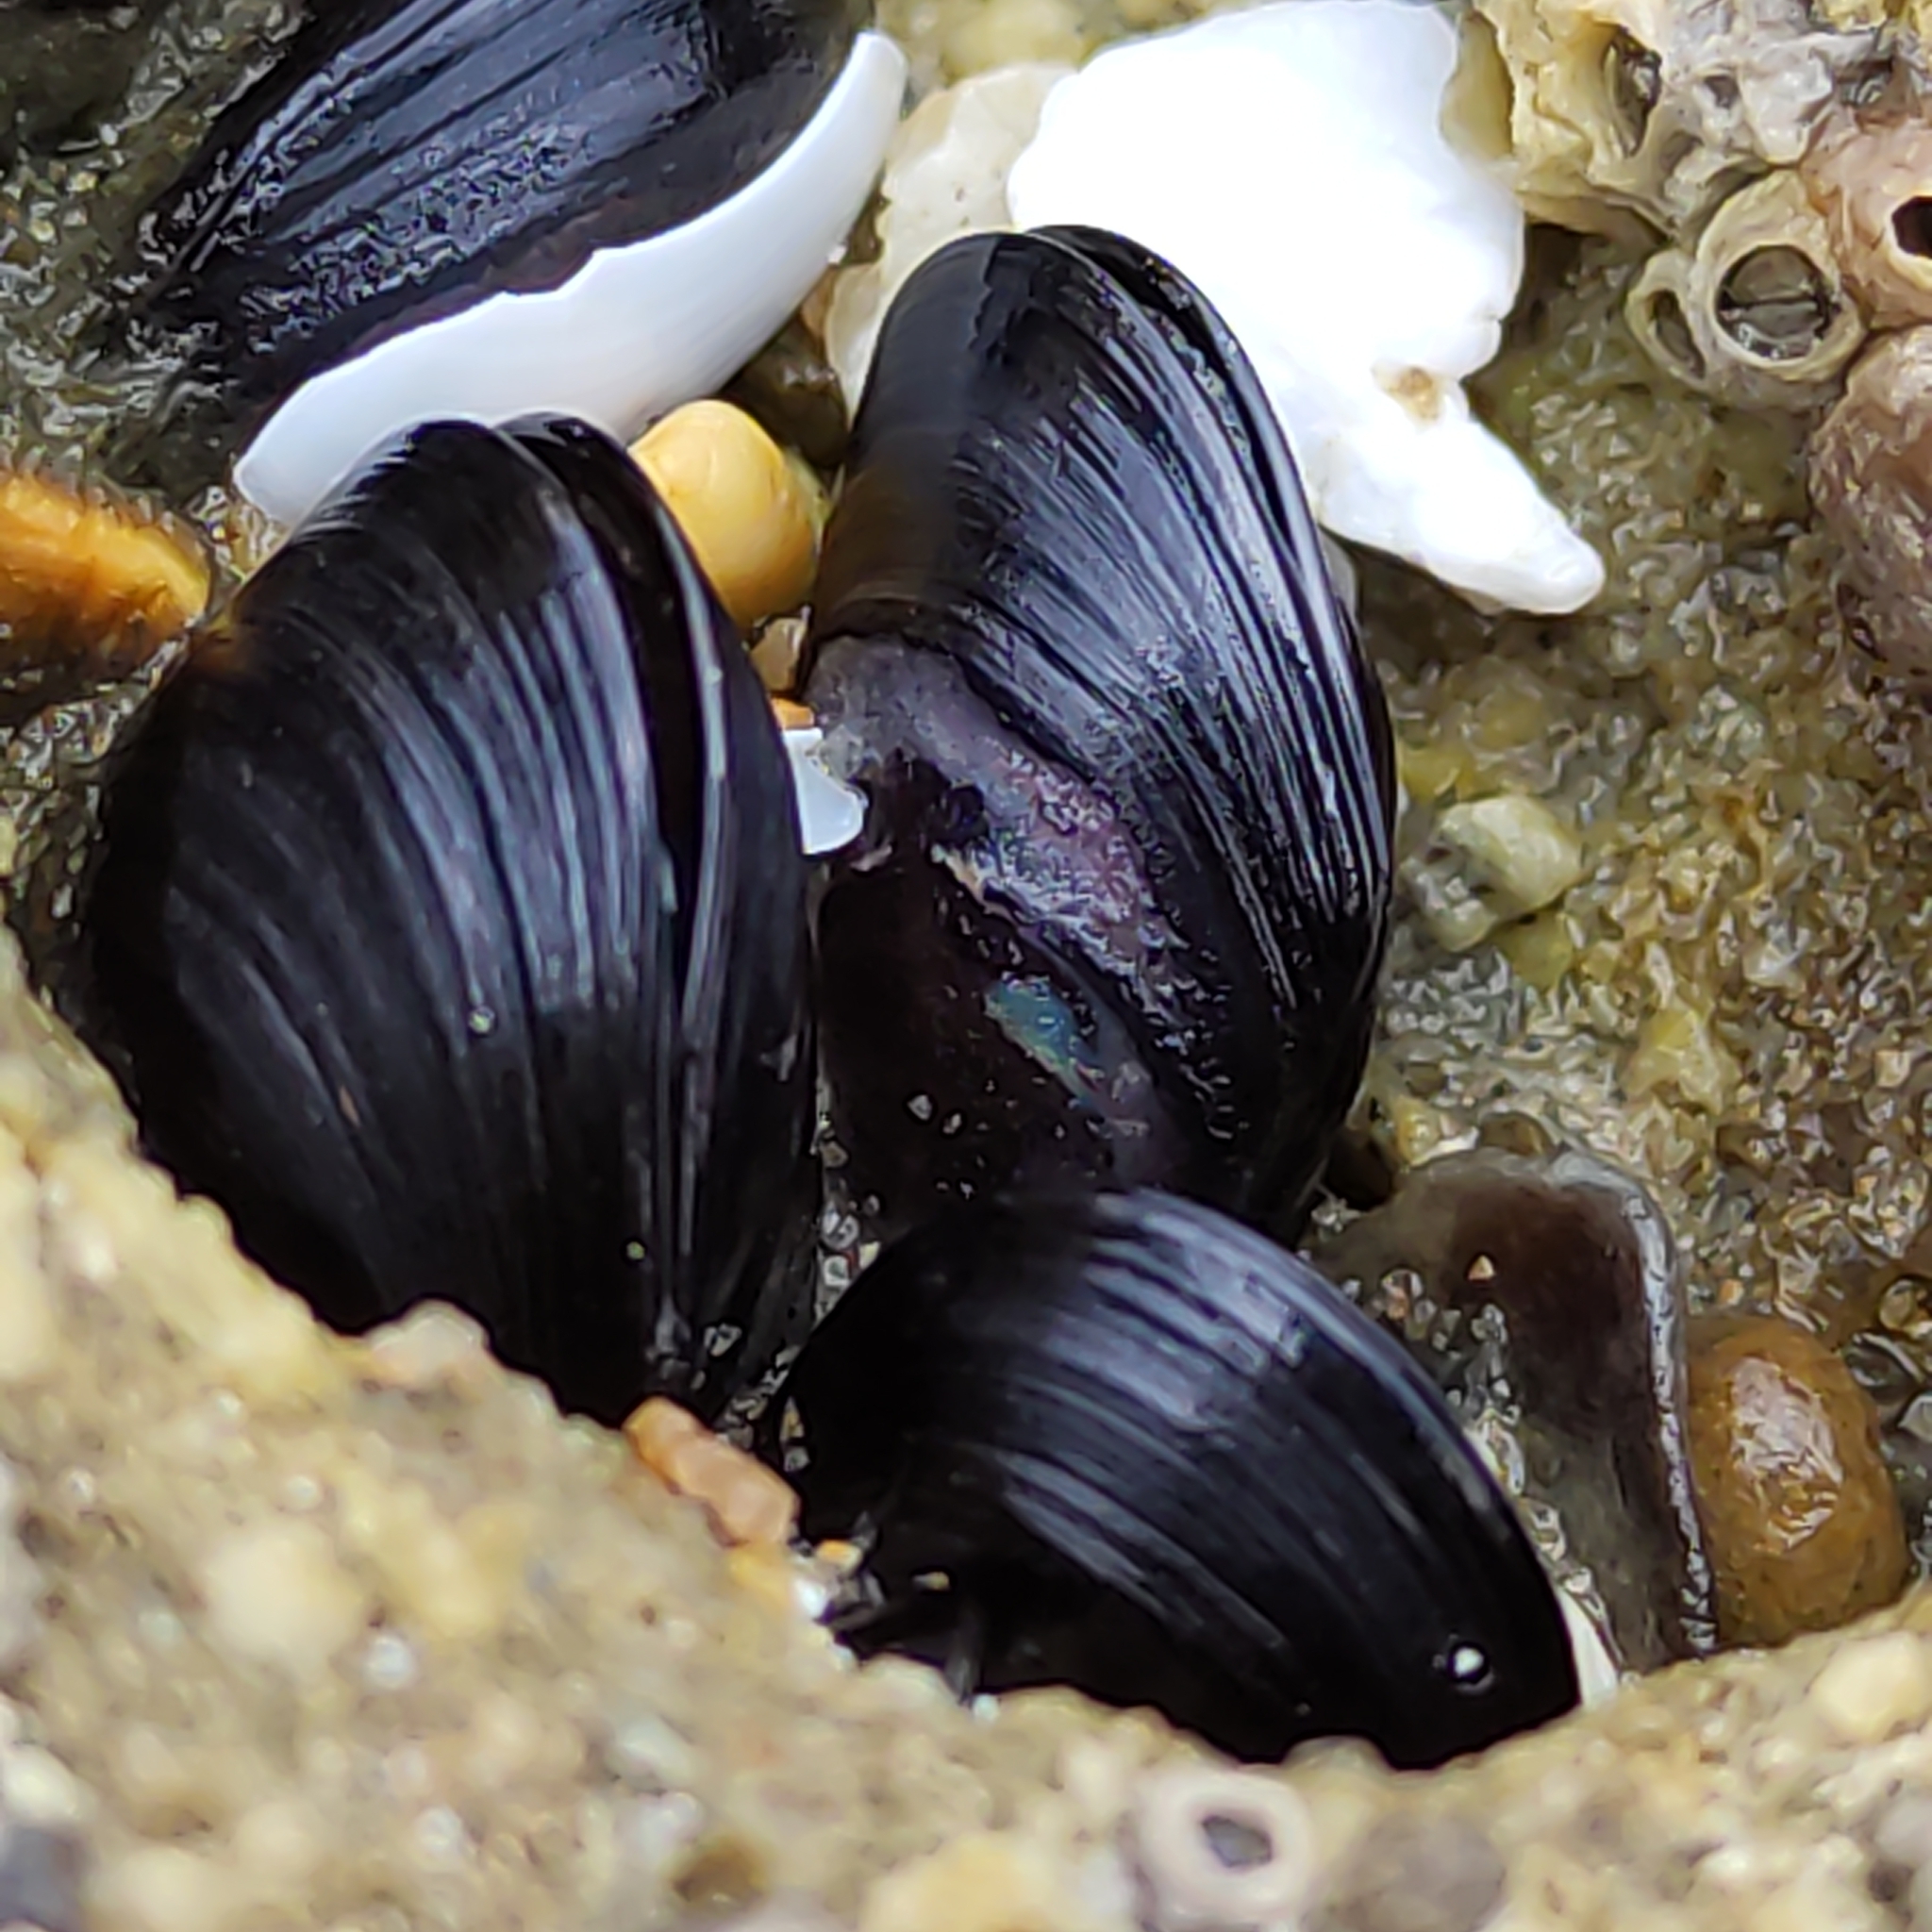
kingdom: Animalia
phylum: Mollusca
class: Bivalvia
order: Mytilida
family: Mytilidae
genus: Xenostrobus
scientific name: Xenostrobus neozelanicus
